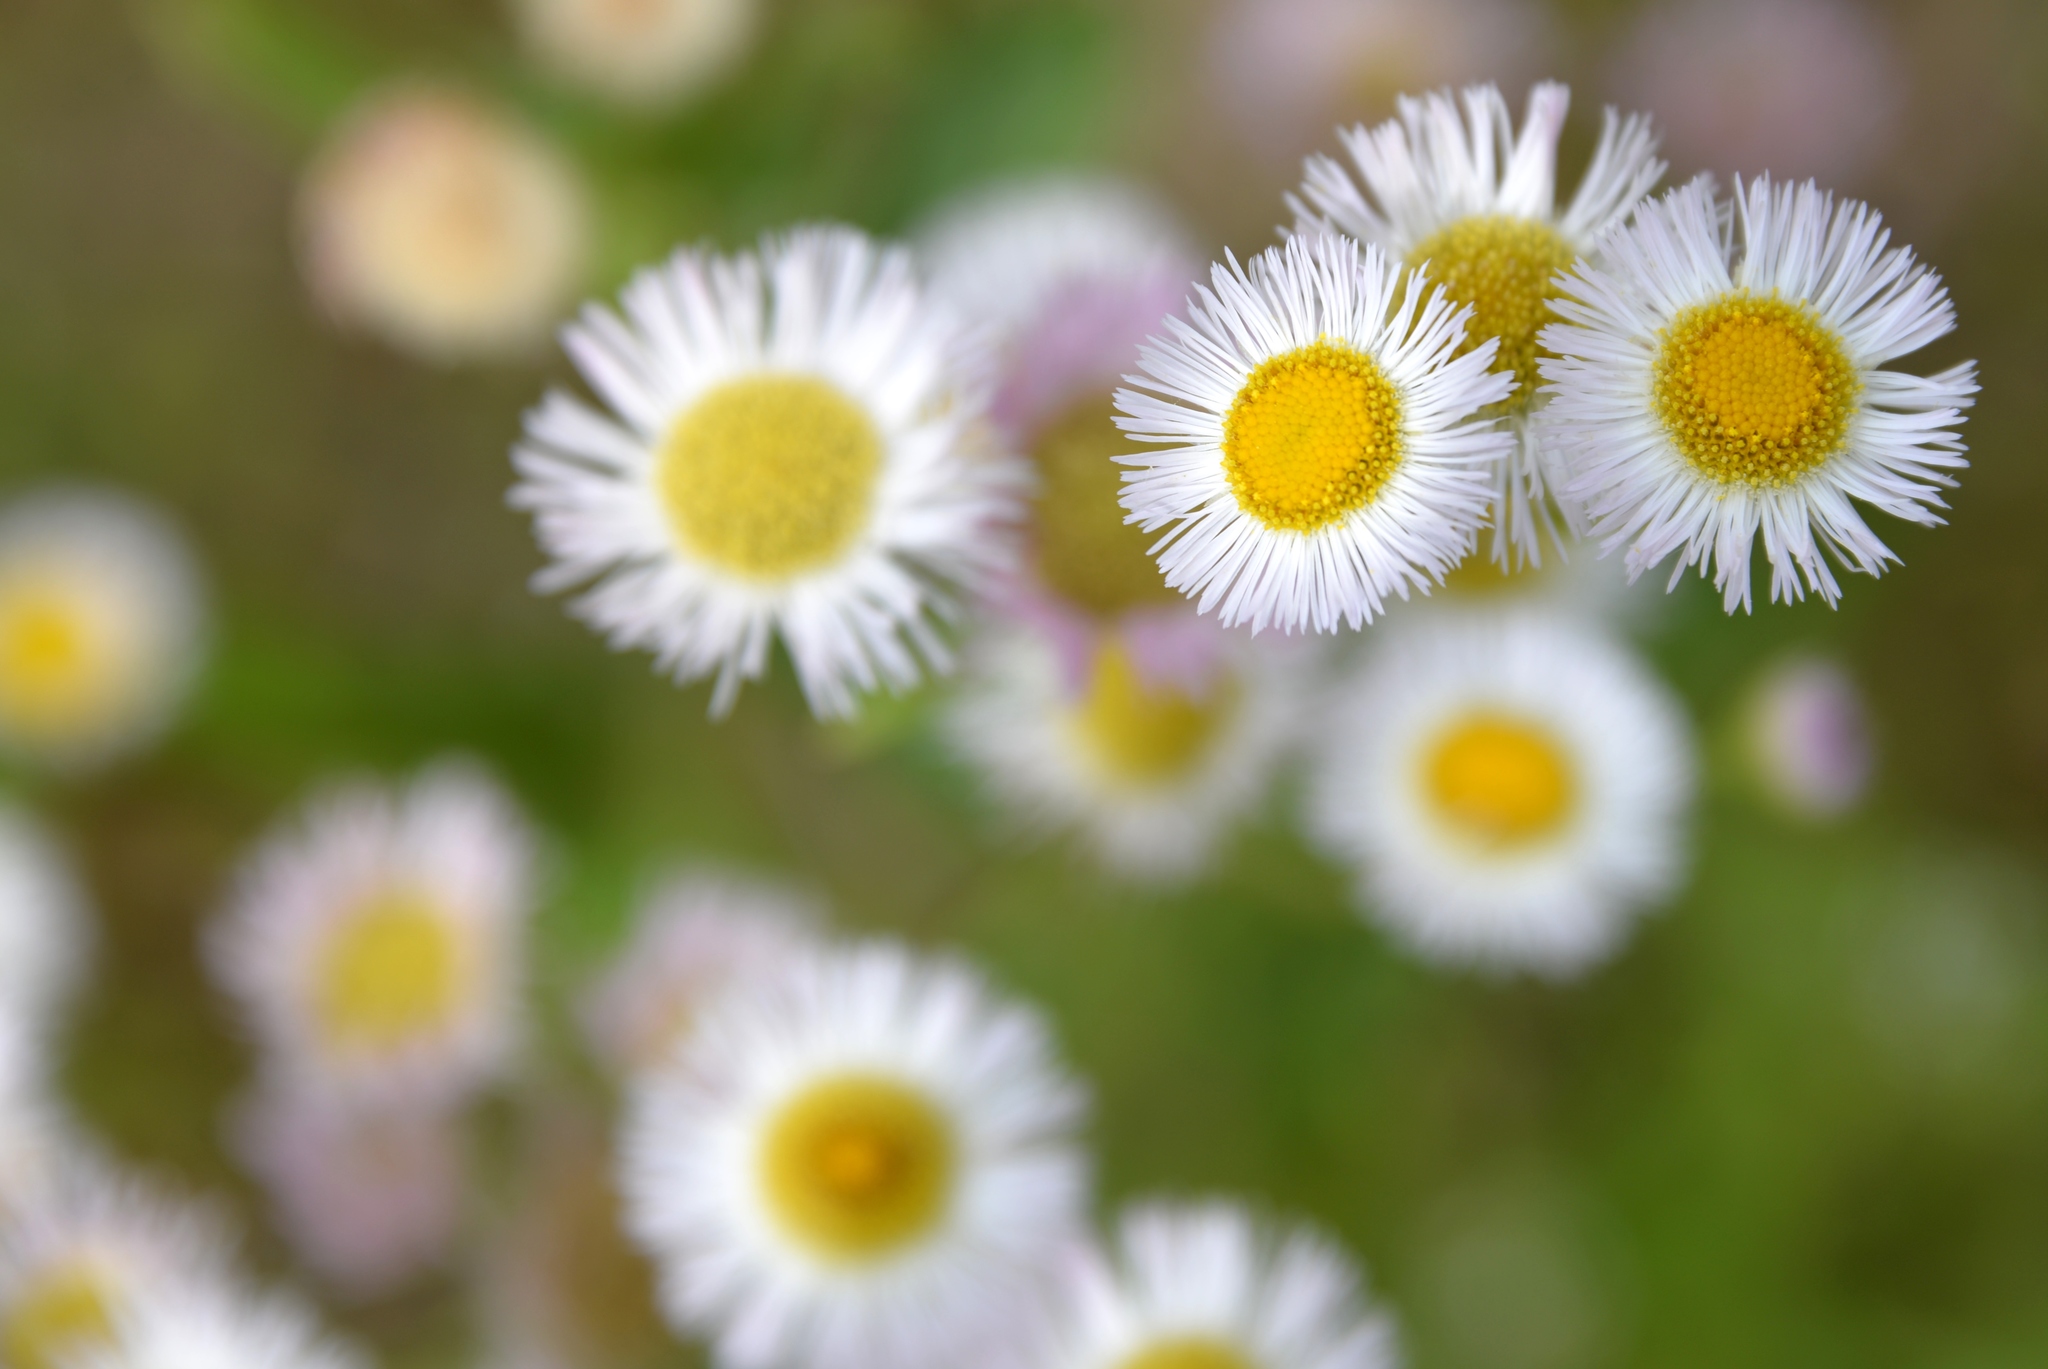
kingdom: Plantae
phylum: Tracheophyta
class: Magnoliopsida
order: Asterales
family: Asteraceae
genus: Erigeron
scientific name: Erigeron strigosus
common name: Common eastern fleabane
